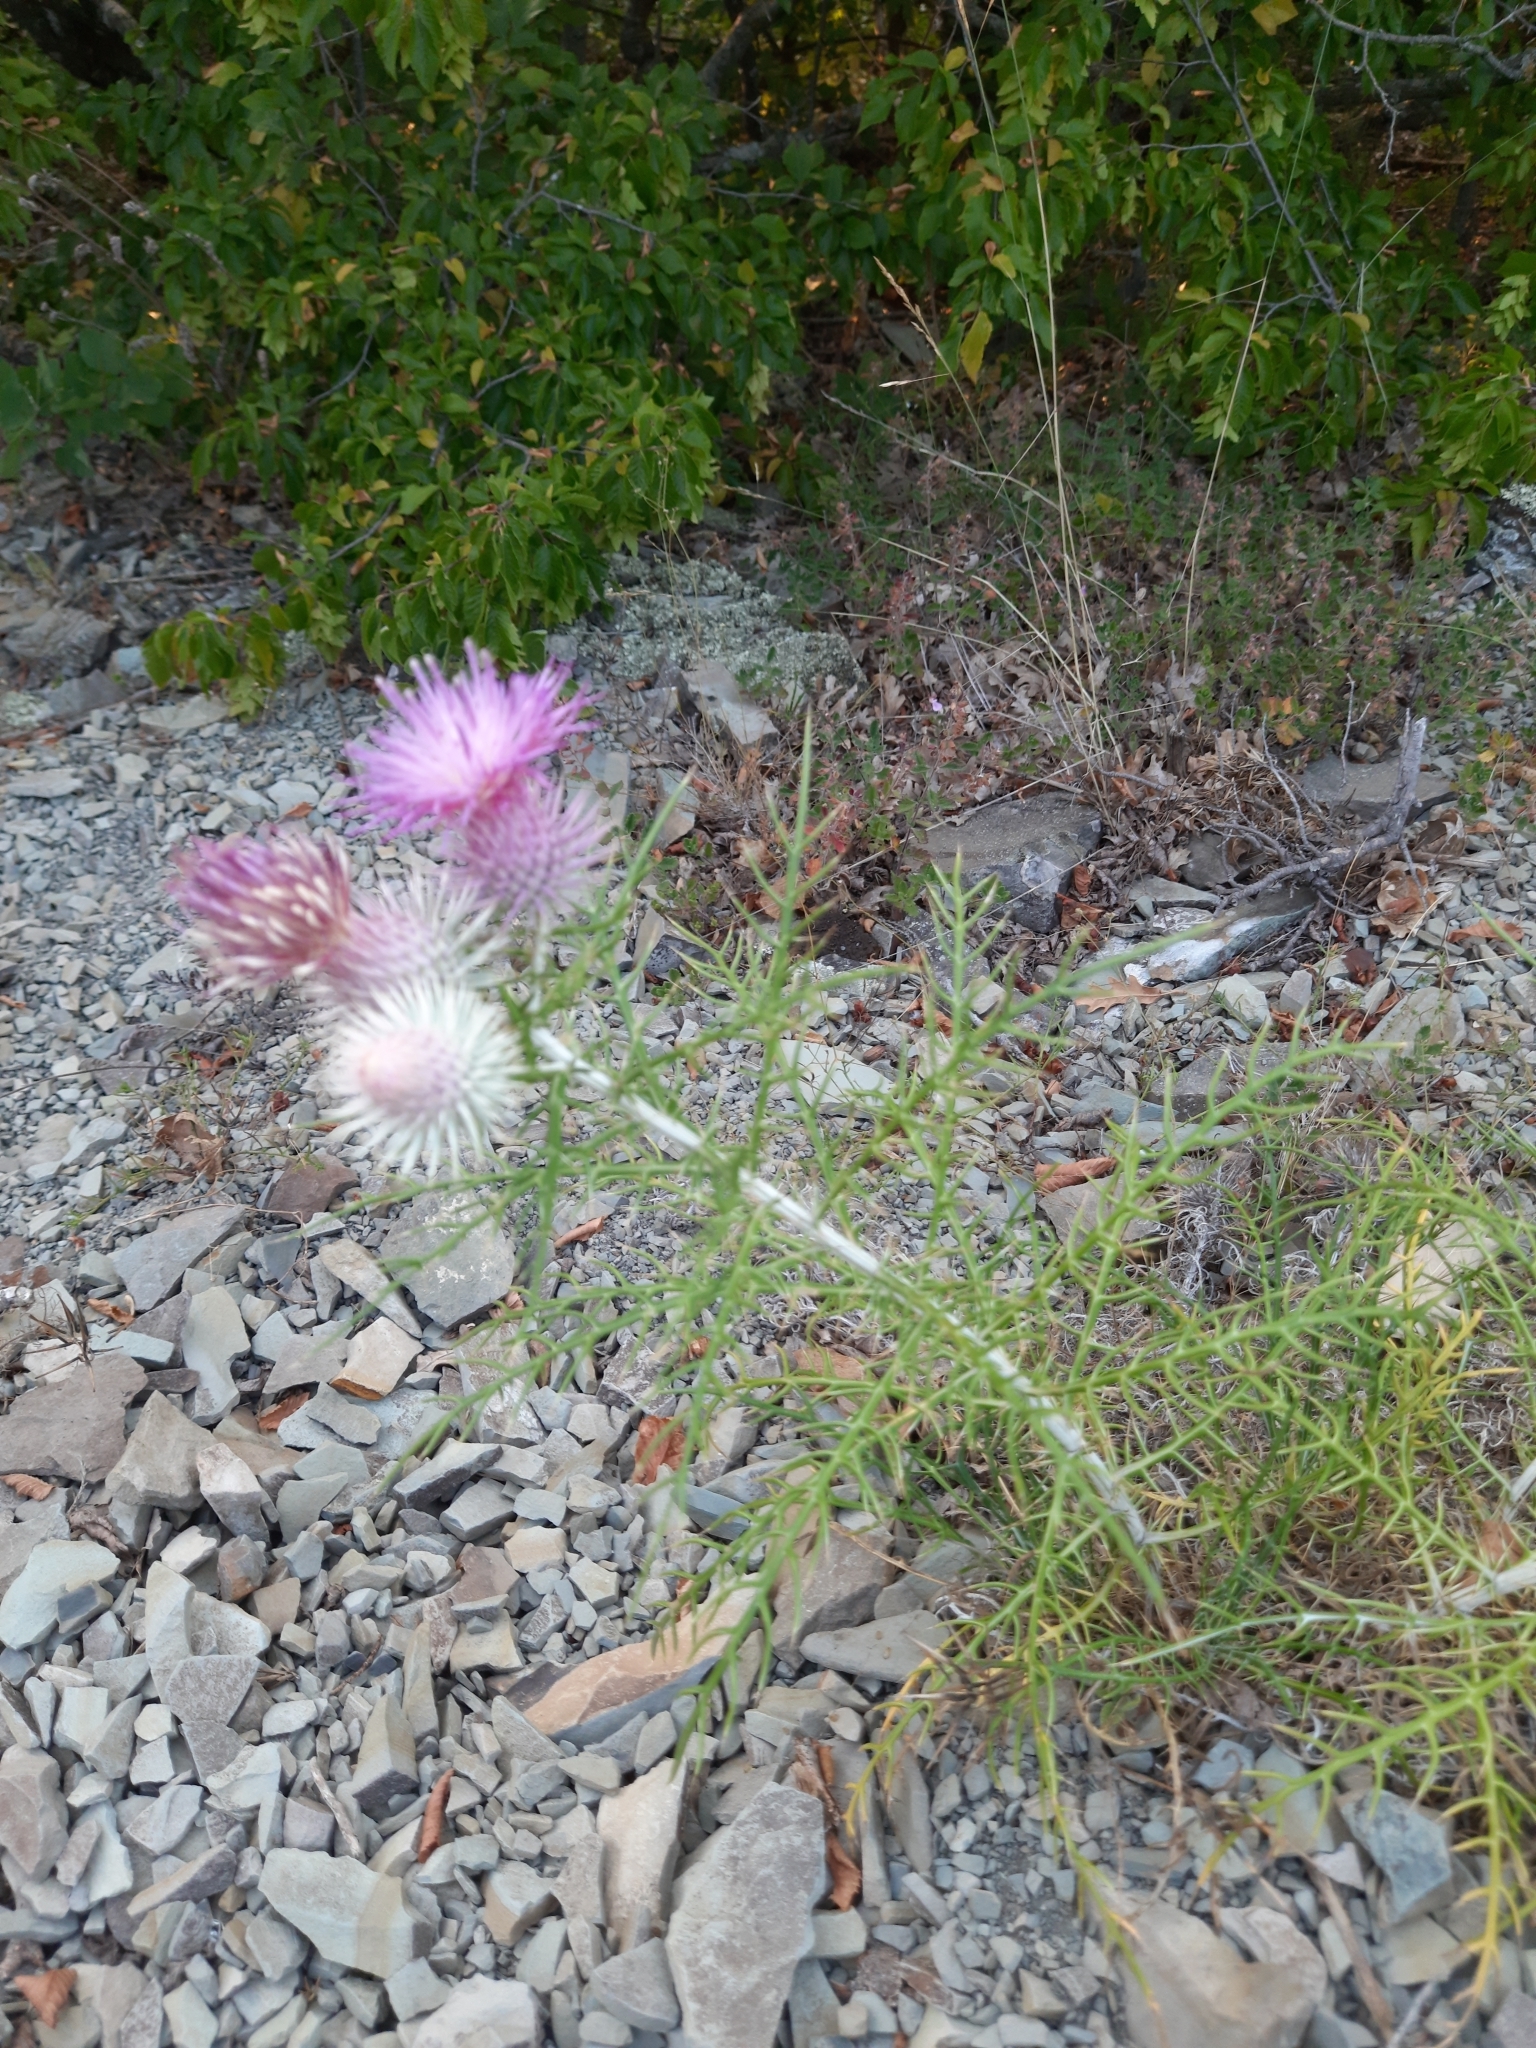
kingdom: Plantae
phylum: Tracheophyta
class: Magnoliopsida
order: Asterales
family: Asteraceae
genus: Ptilostemon
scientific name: Ptilostemon echinocephalus
